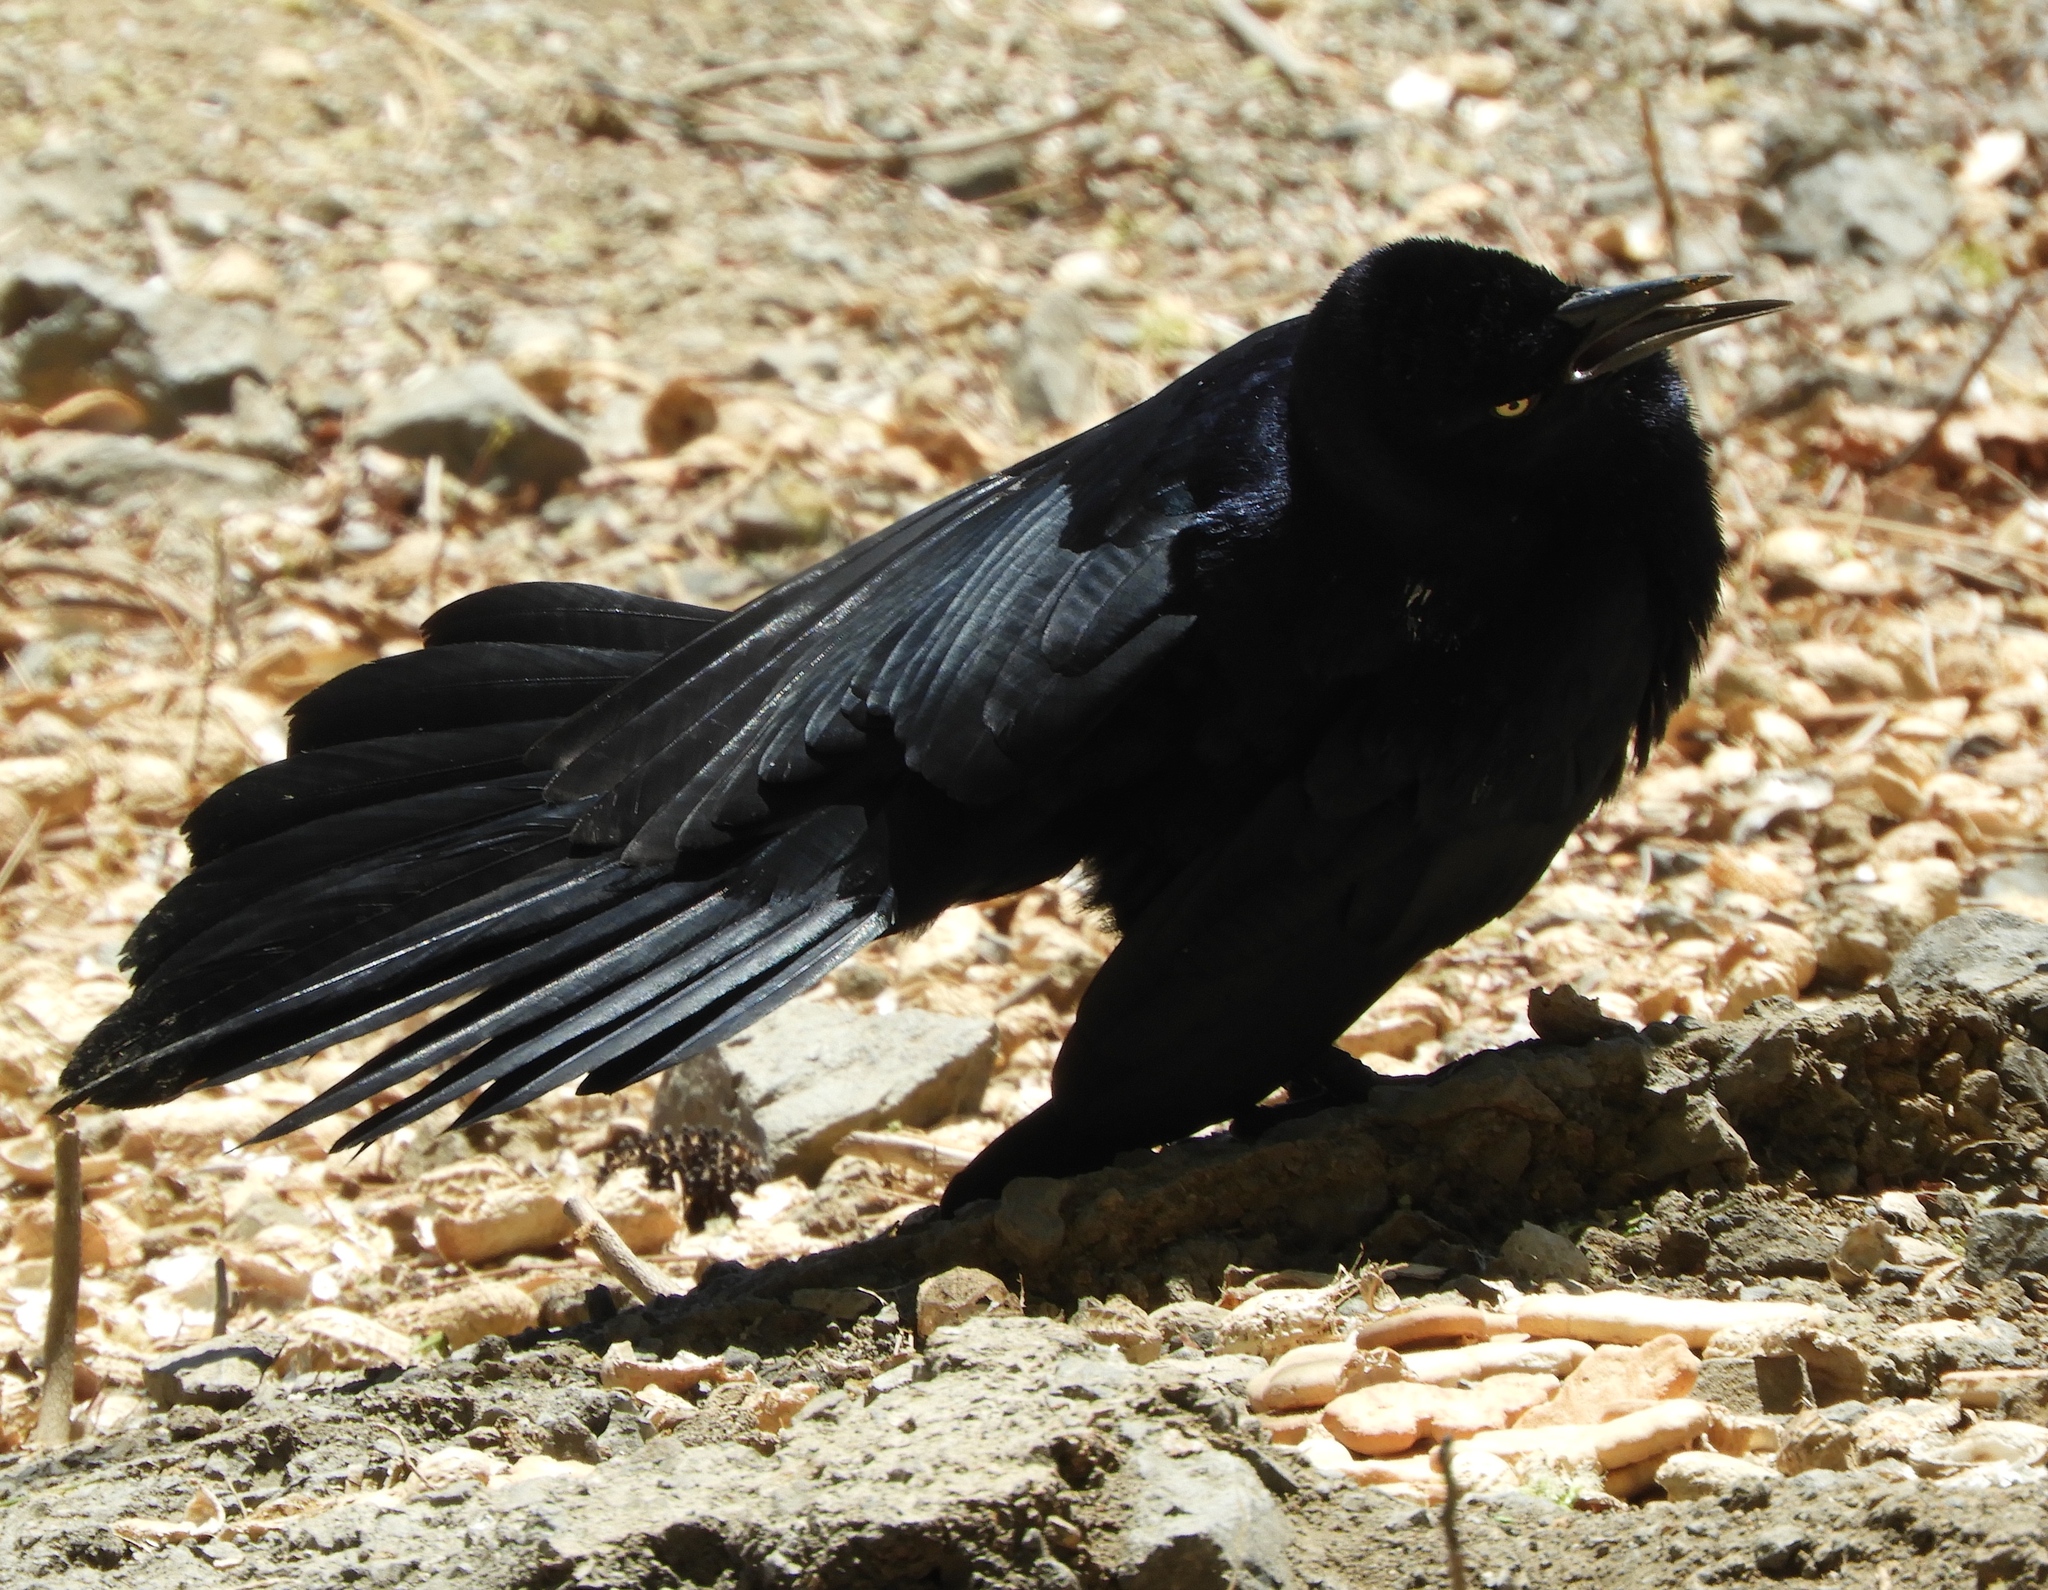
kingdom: Animalia
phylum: Chordata
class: Aves
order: Passeriformes
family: Icteridae
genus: Quiscalus
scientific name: Quiscalus mexicanus
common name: Great-tailed grackle
